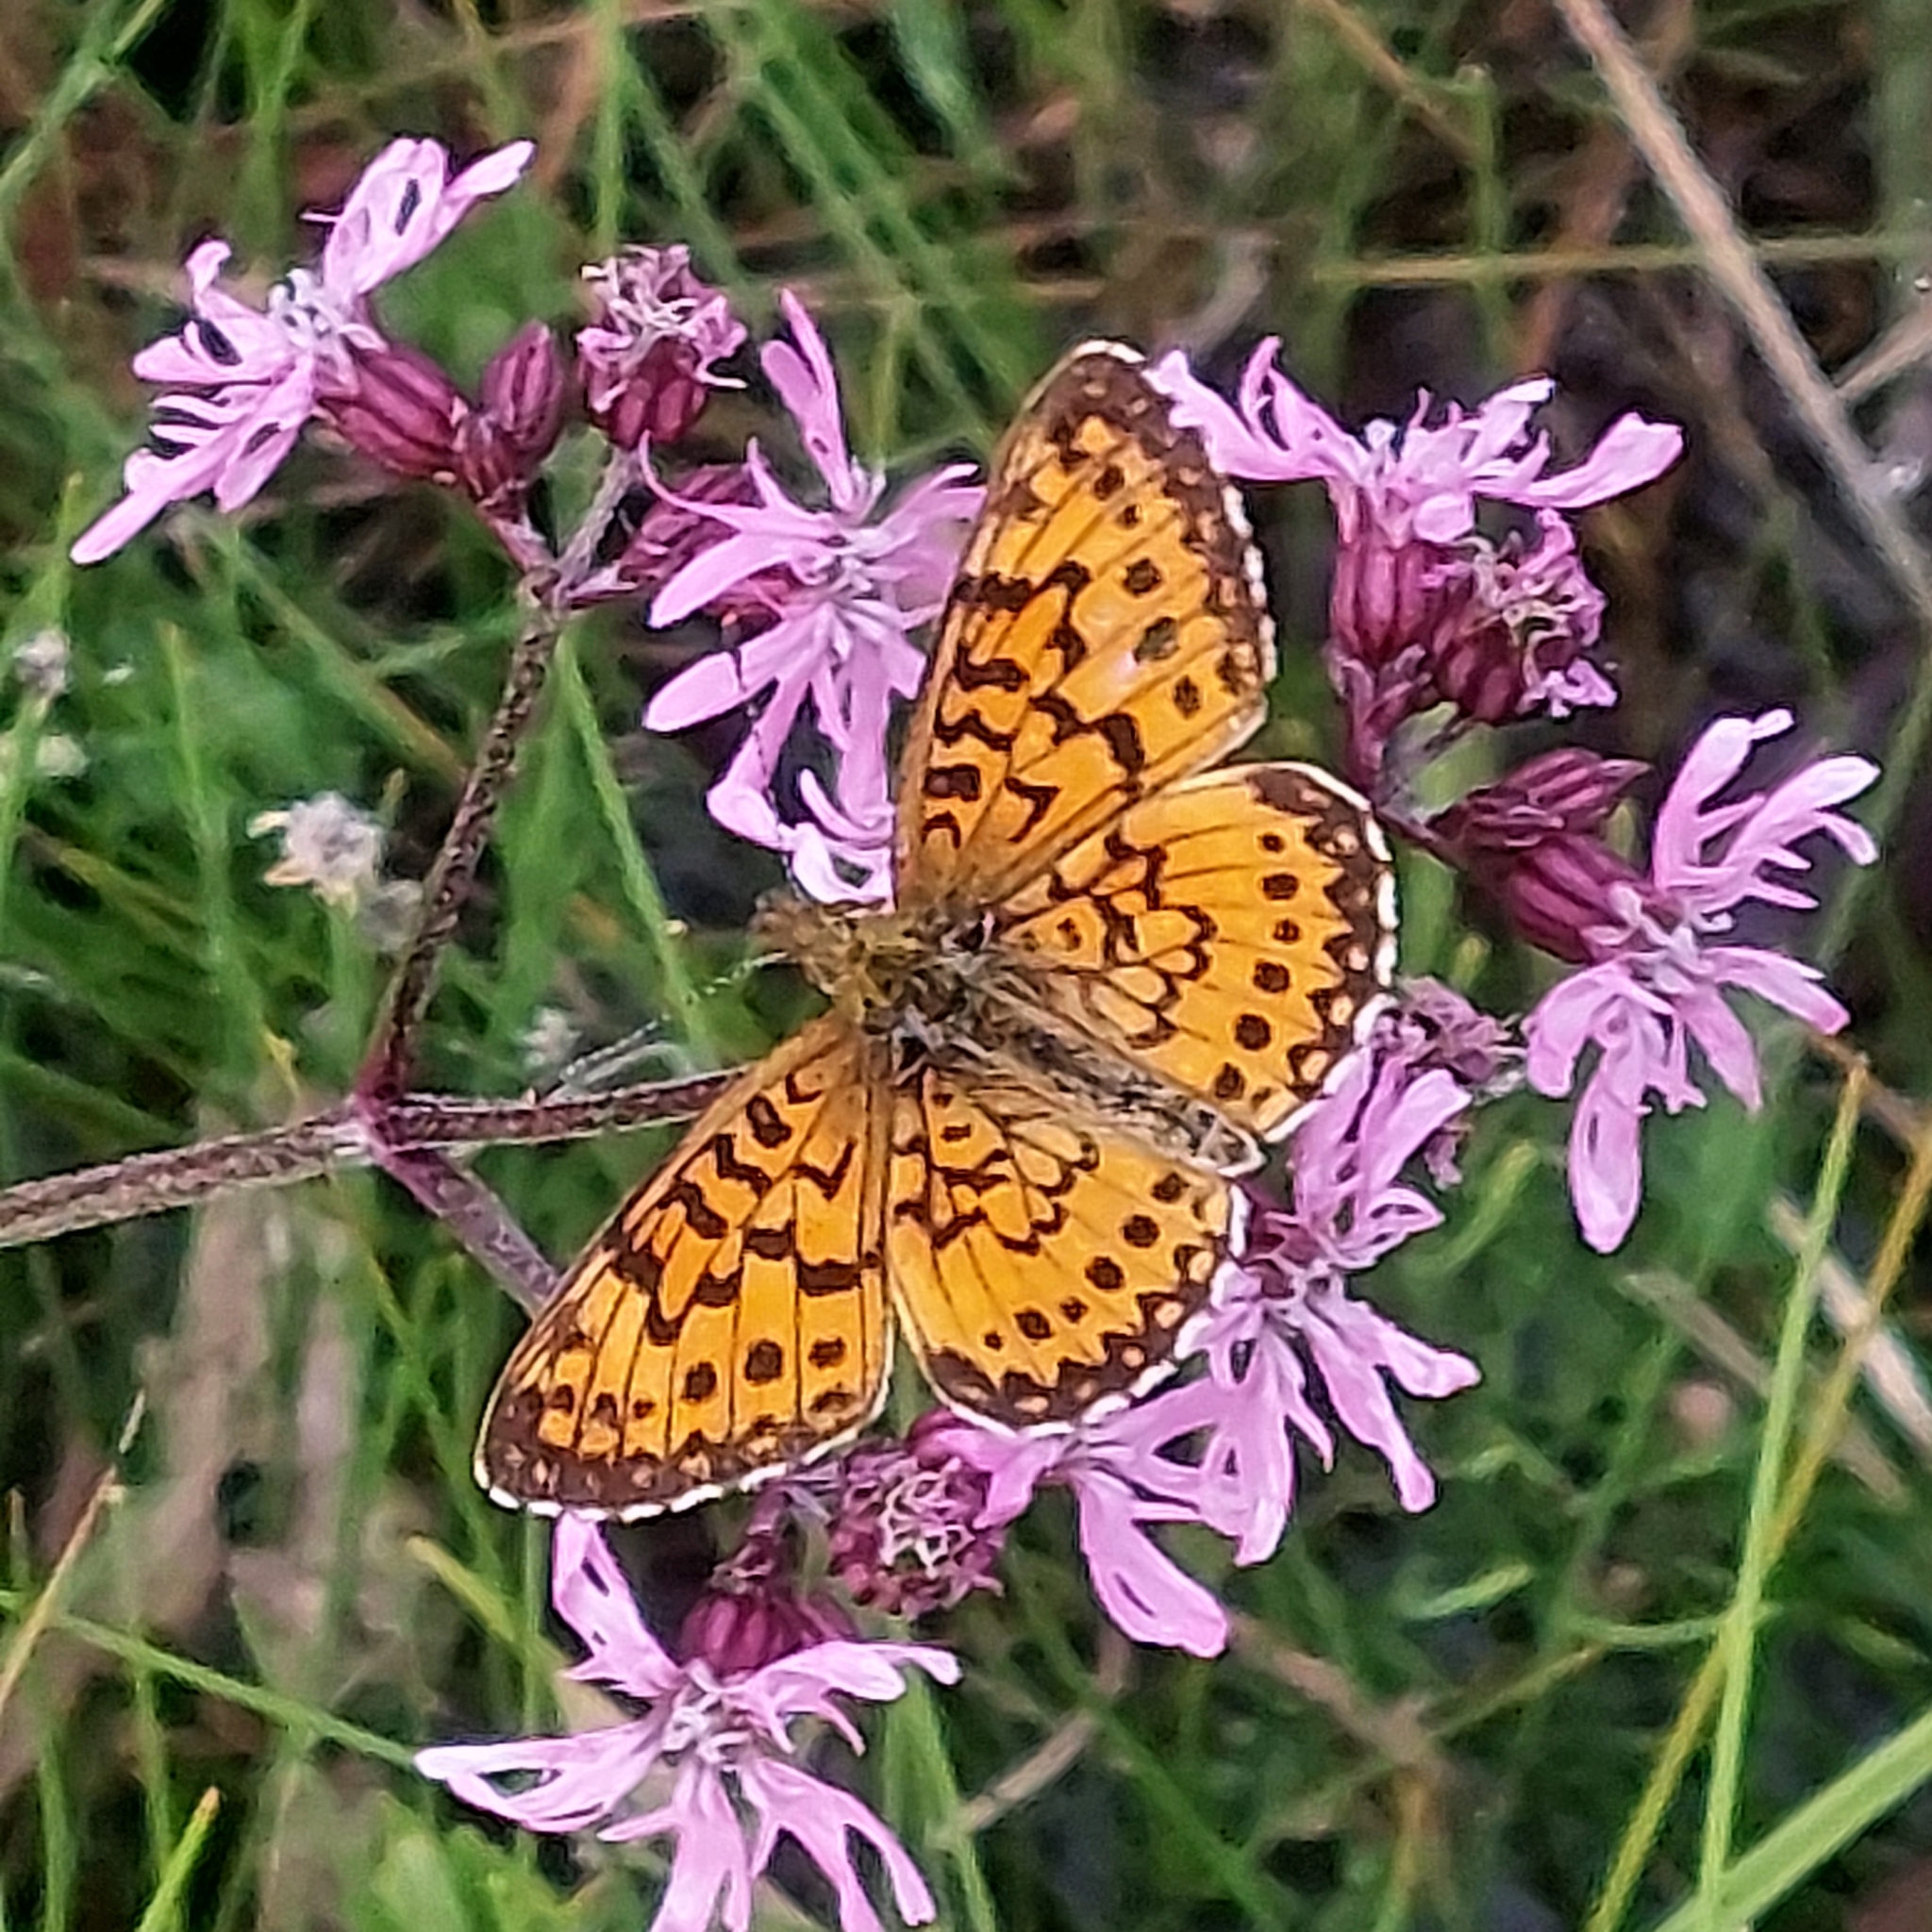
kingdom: Animalia
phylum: Arthropoda
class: Insecta
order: Lepidoptera
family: Nymphalidae
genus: Boloria
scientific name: Boloria
